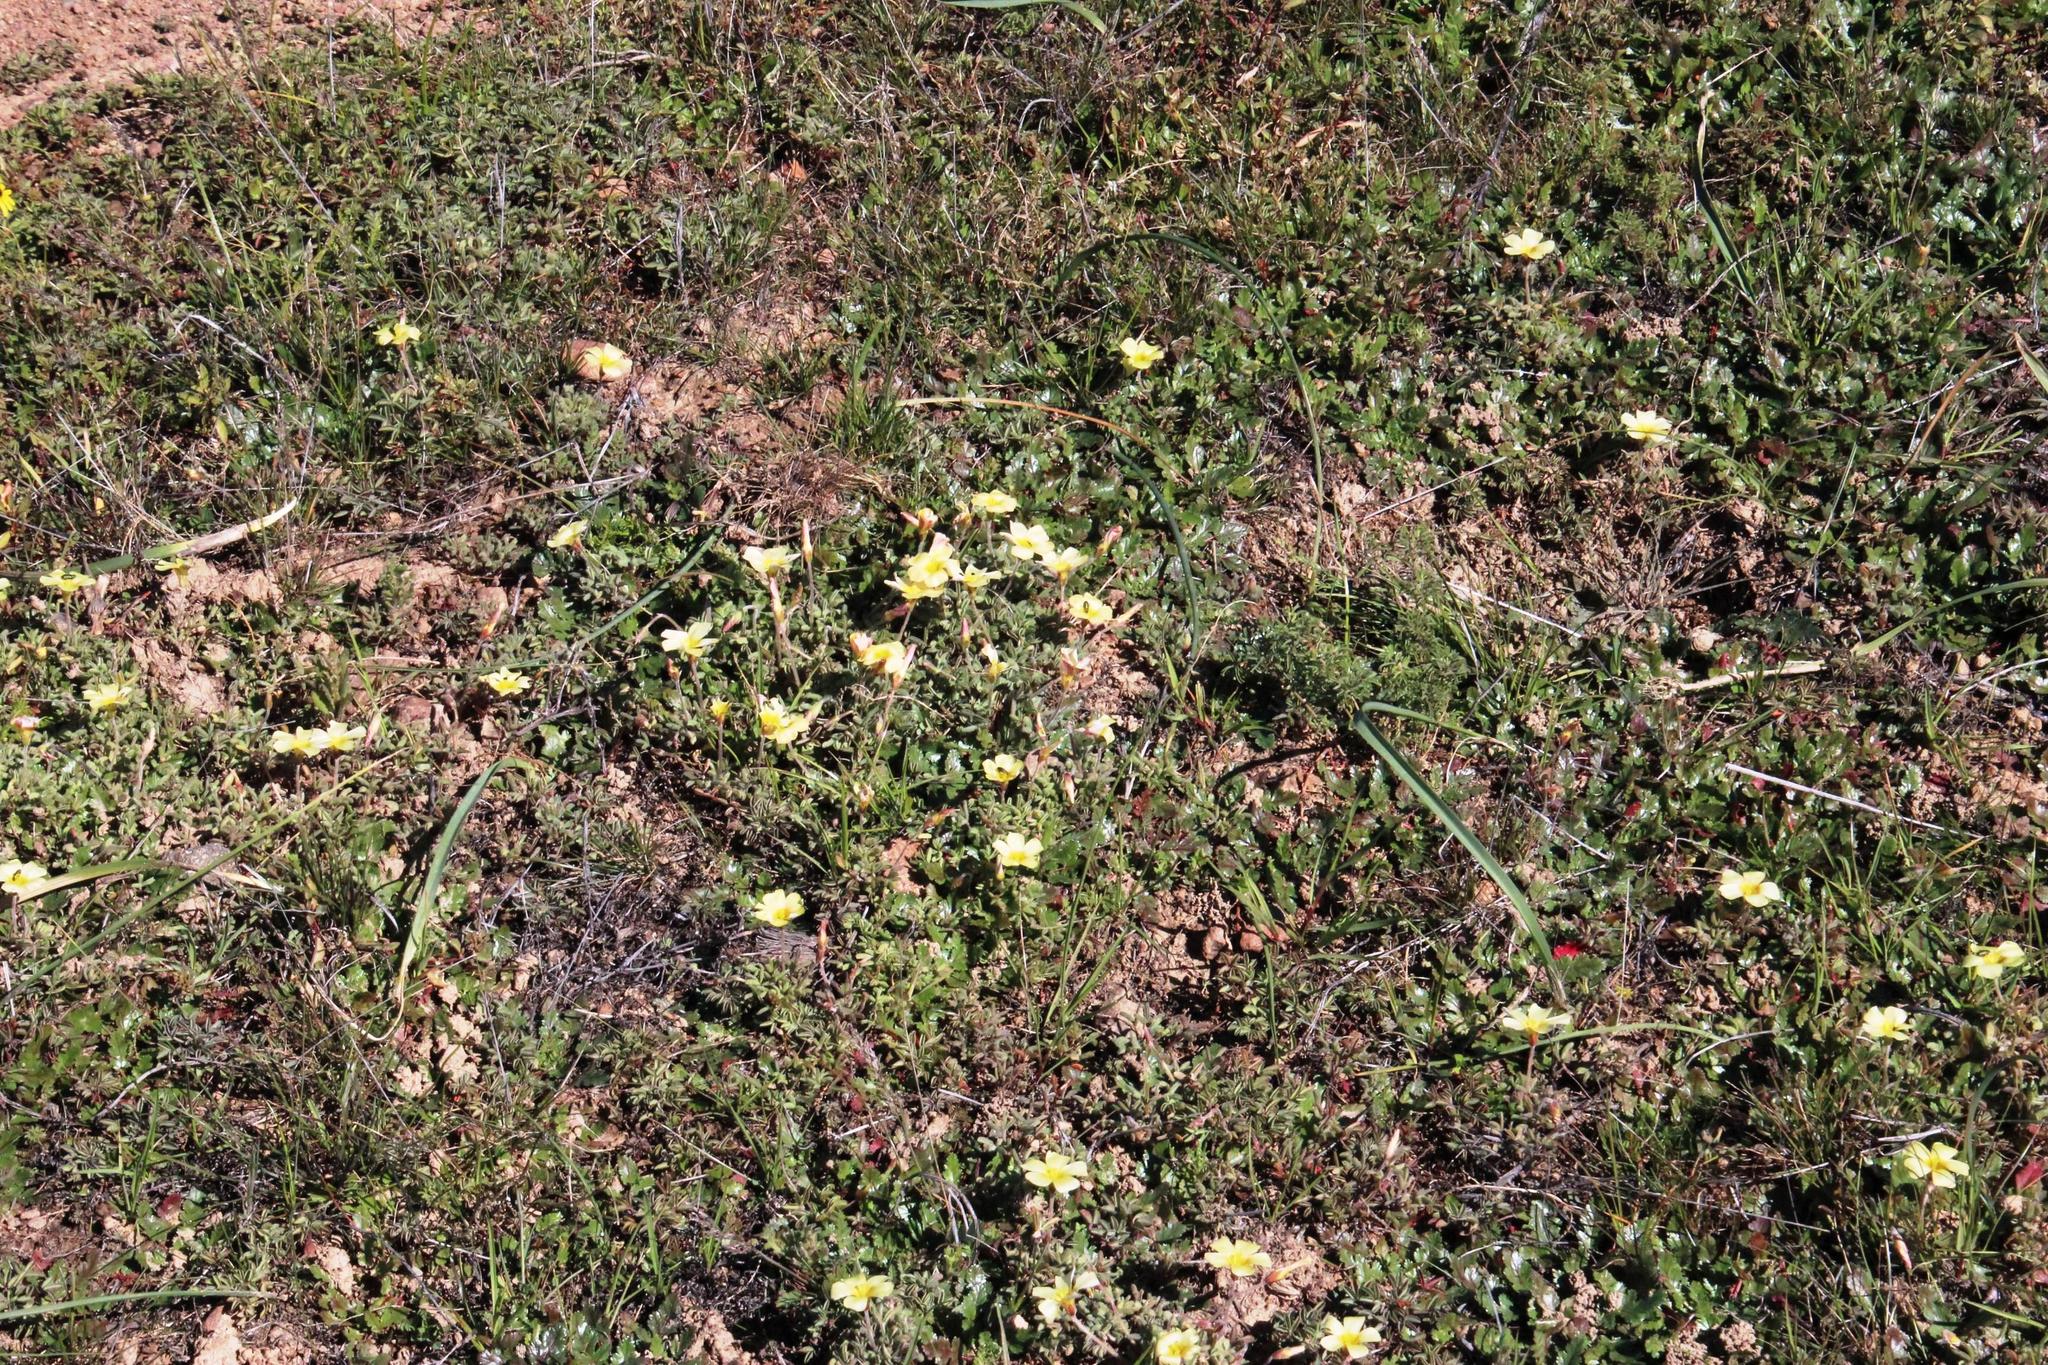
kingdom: Plantae
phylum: Tracheophyta
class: Magnoliopsida
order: Oxalidales
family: Oxalidaceae
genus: Oxalis
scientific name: Oxalis obtusa
